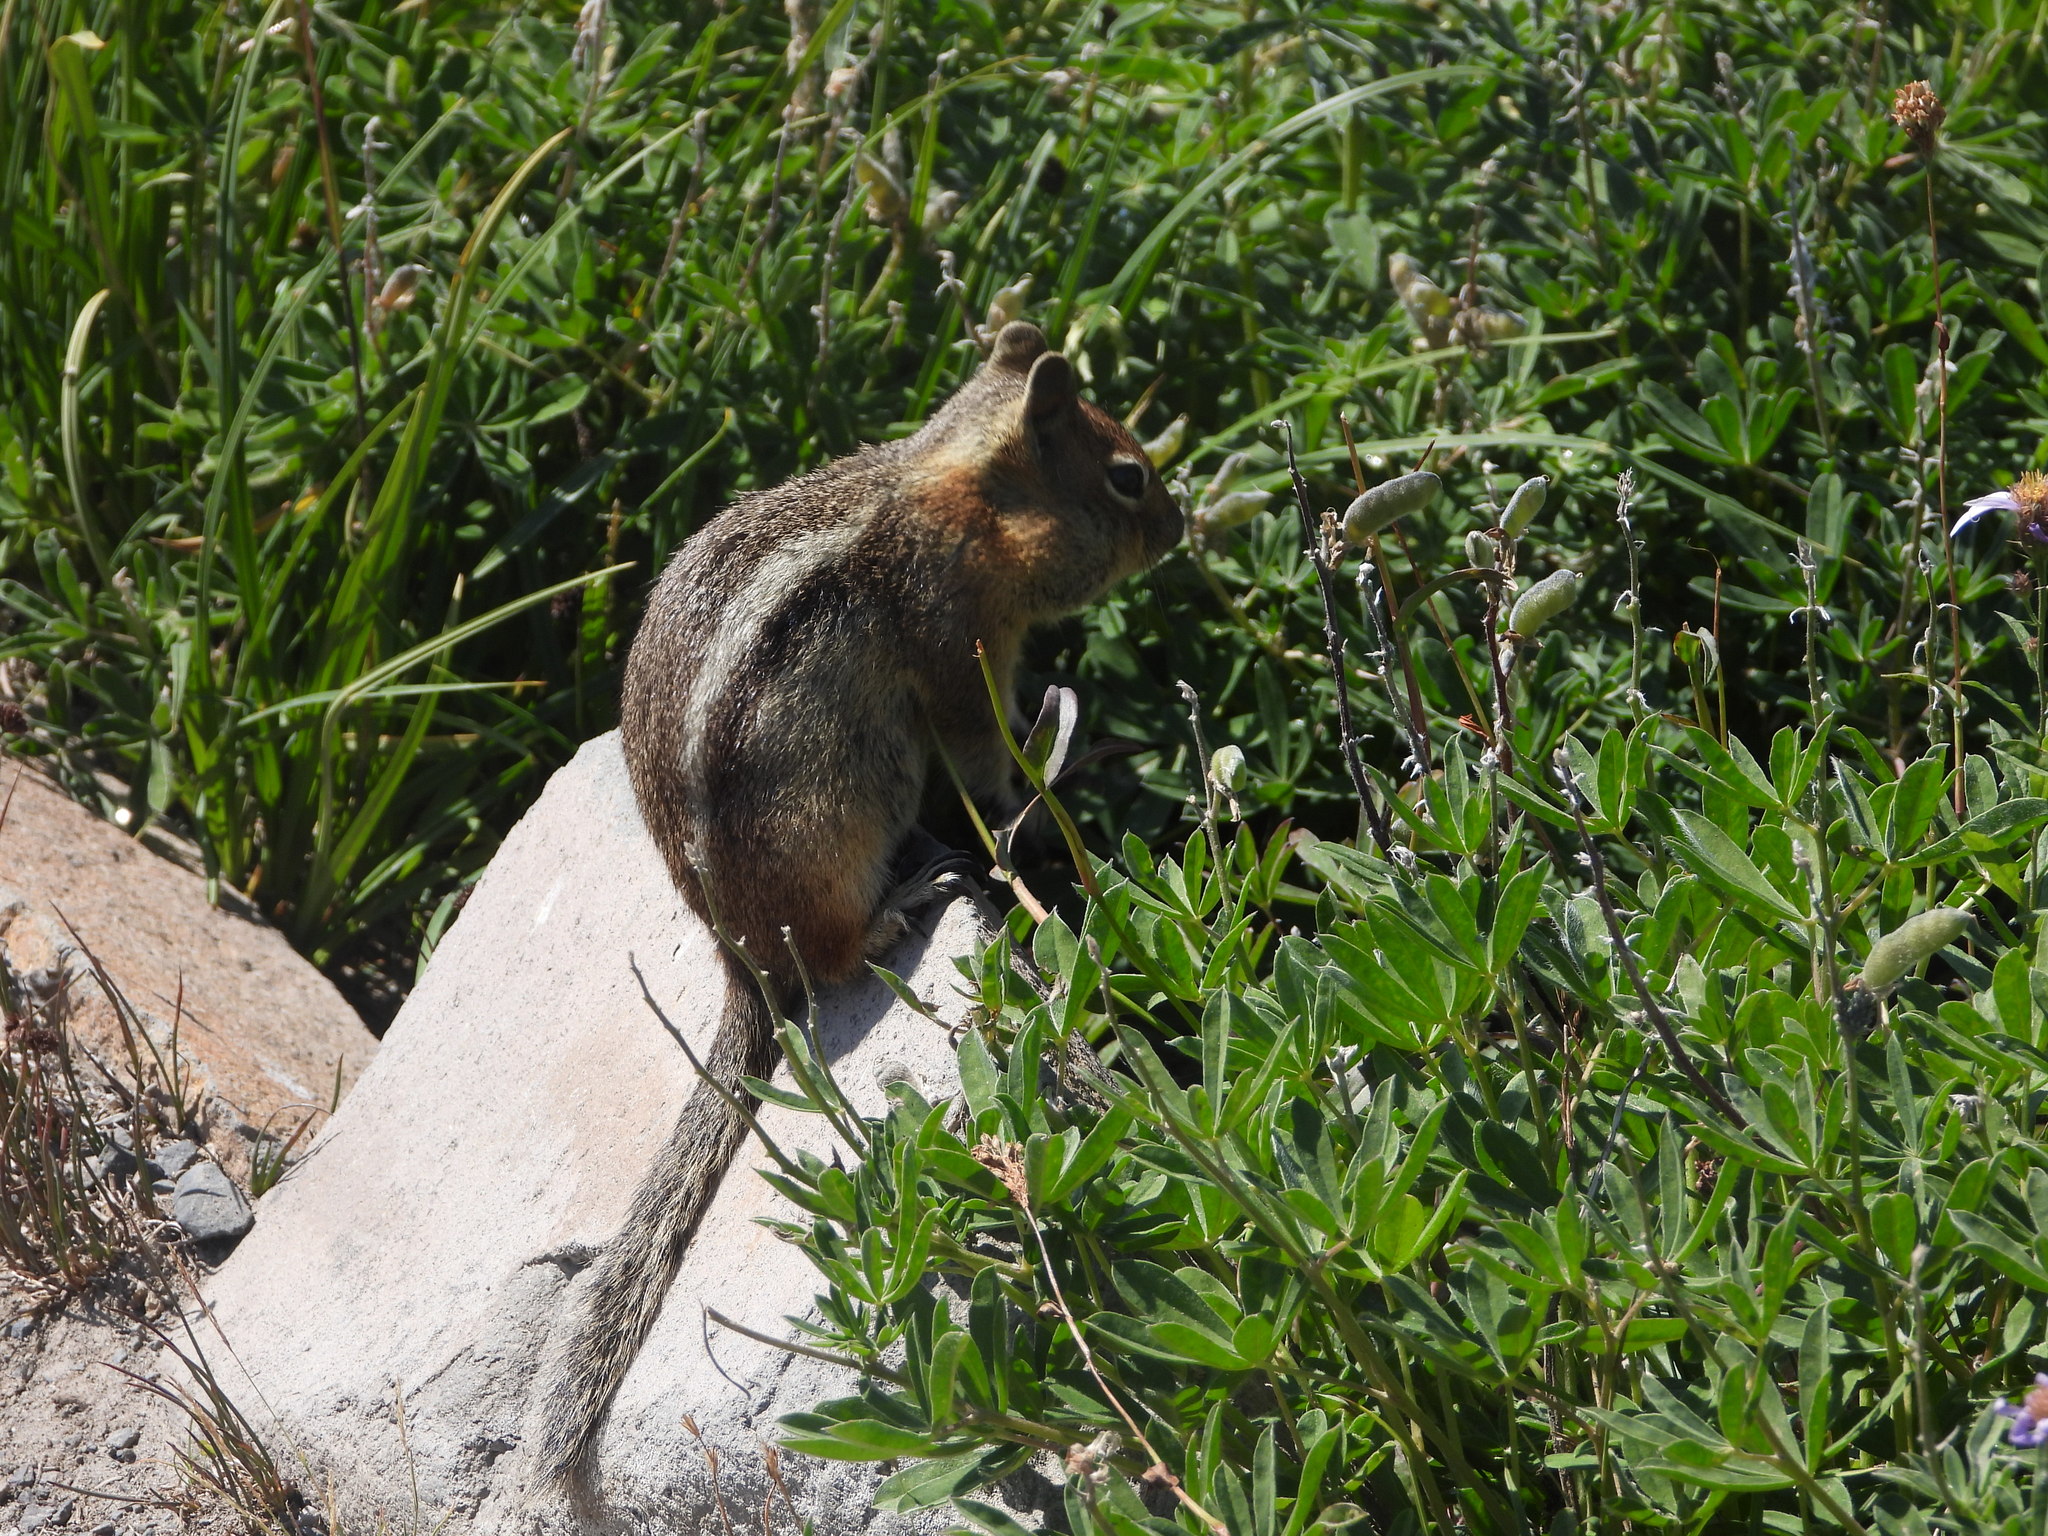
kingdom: Animalia
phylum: Chordata
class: Mammalia
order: Rodentia
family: Sciuridae
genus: Callospermophilus
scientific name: Callospermophilus saturatus
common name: Cascade golden-mantled ground squirrel
